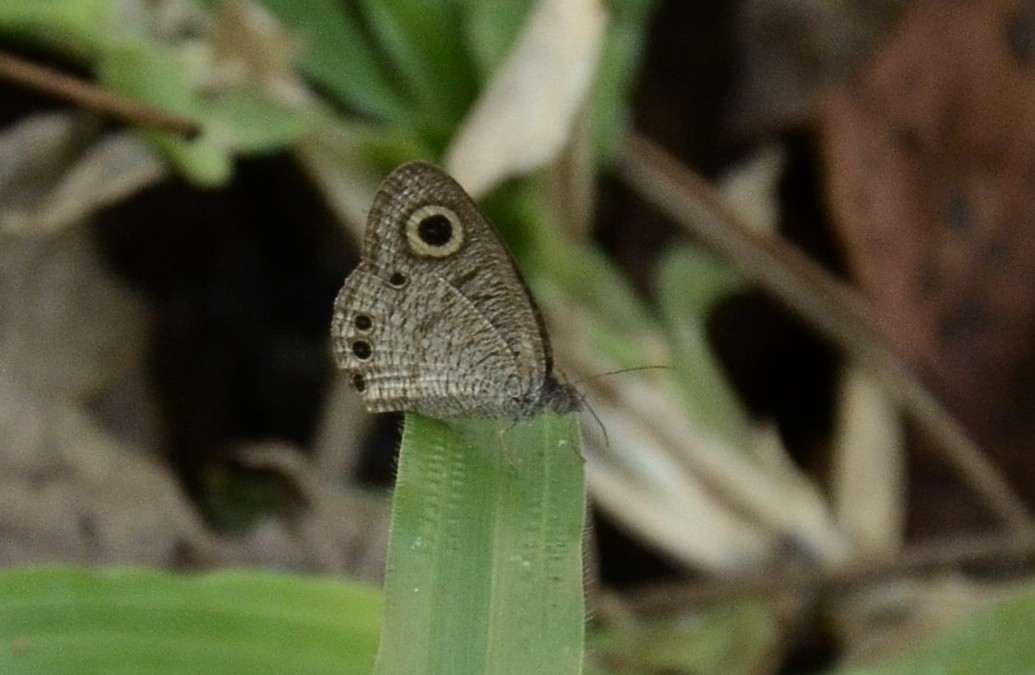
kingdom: Animalia
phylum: Arthropoda
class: Insecta
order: Lepidoptera
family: Nymphalidae
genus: Ypthima
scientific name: Ypthima huebneri
